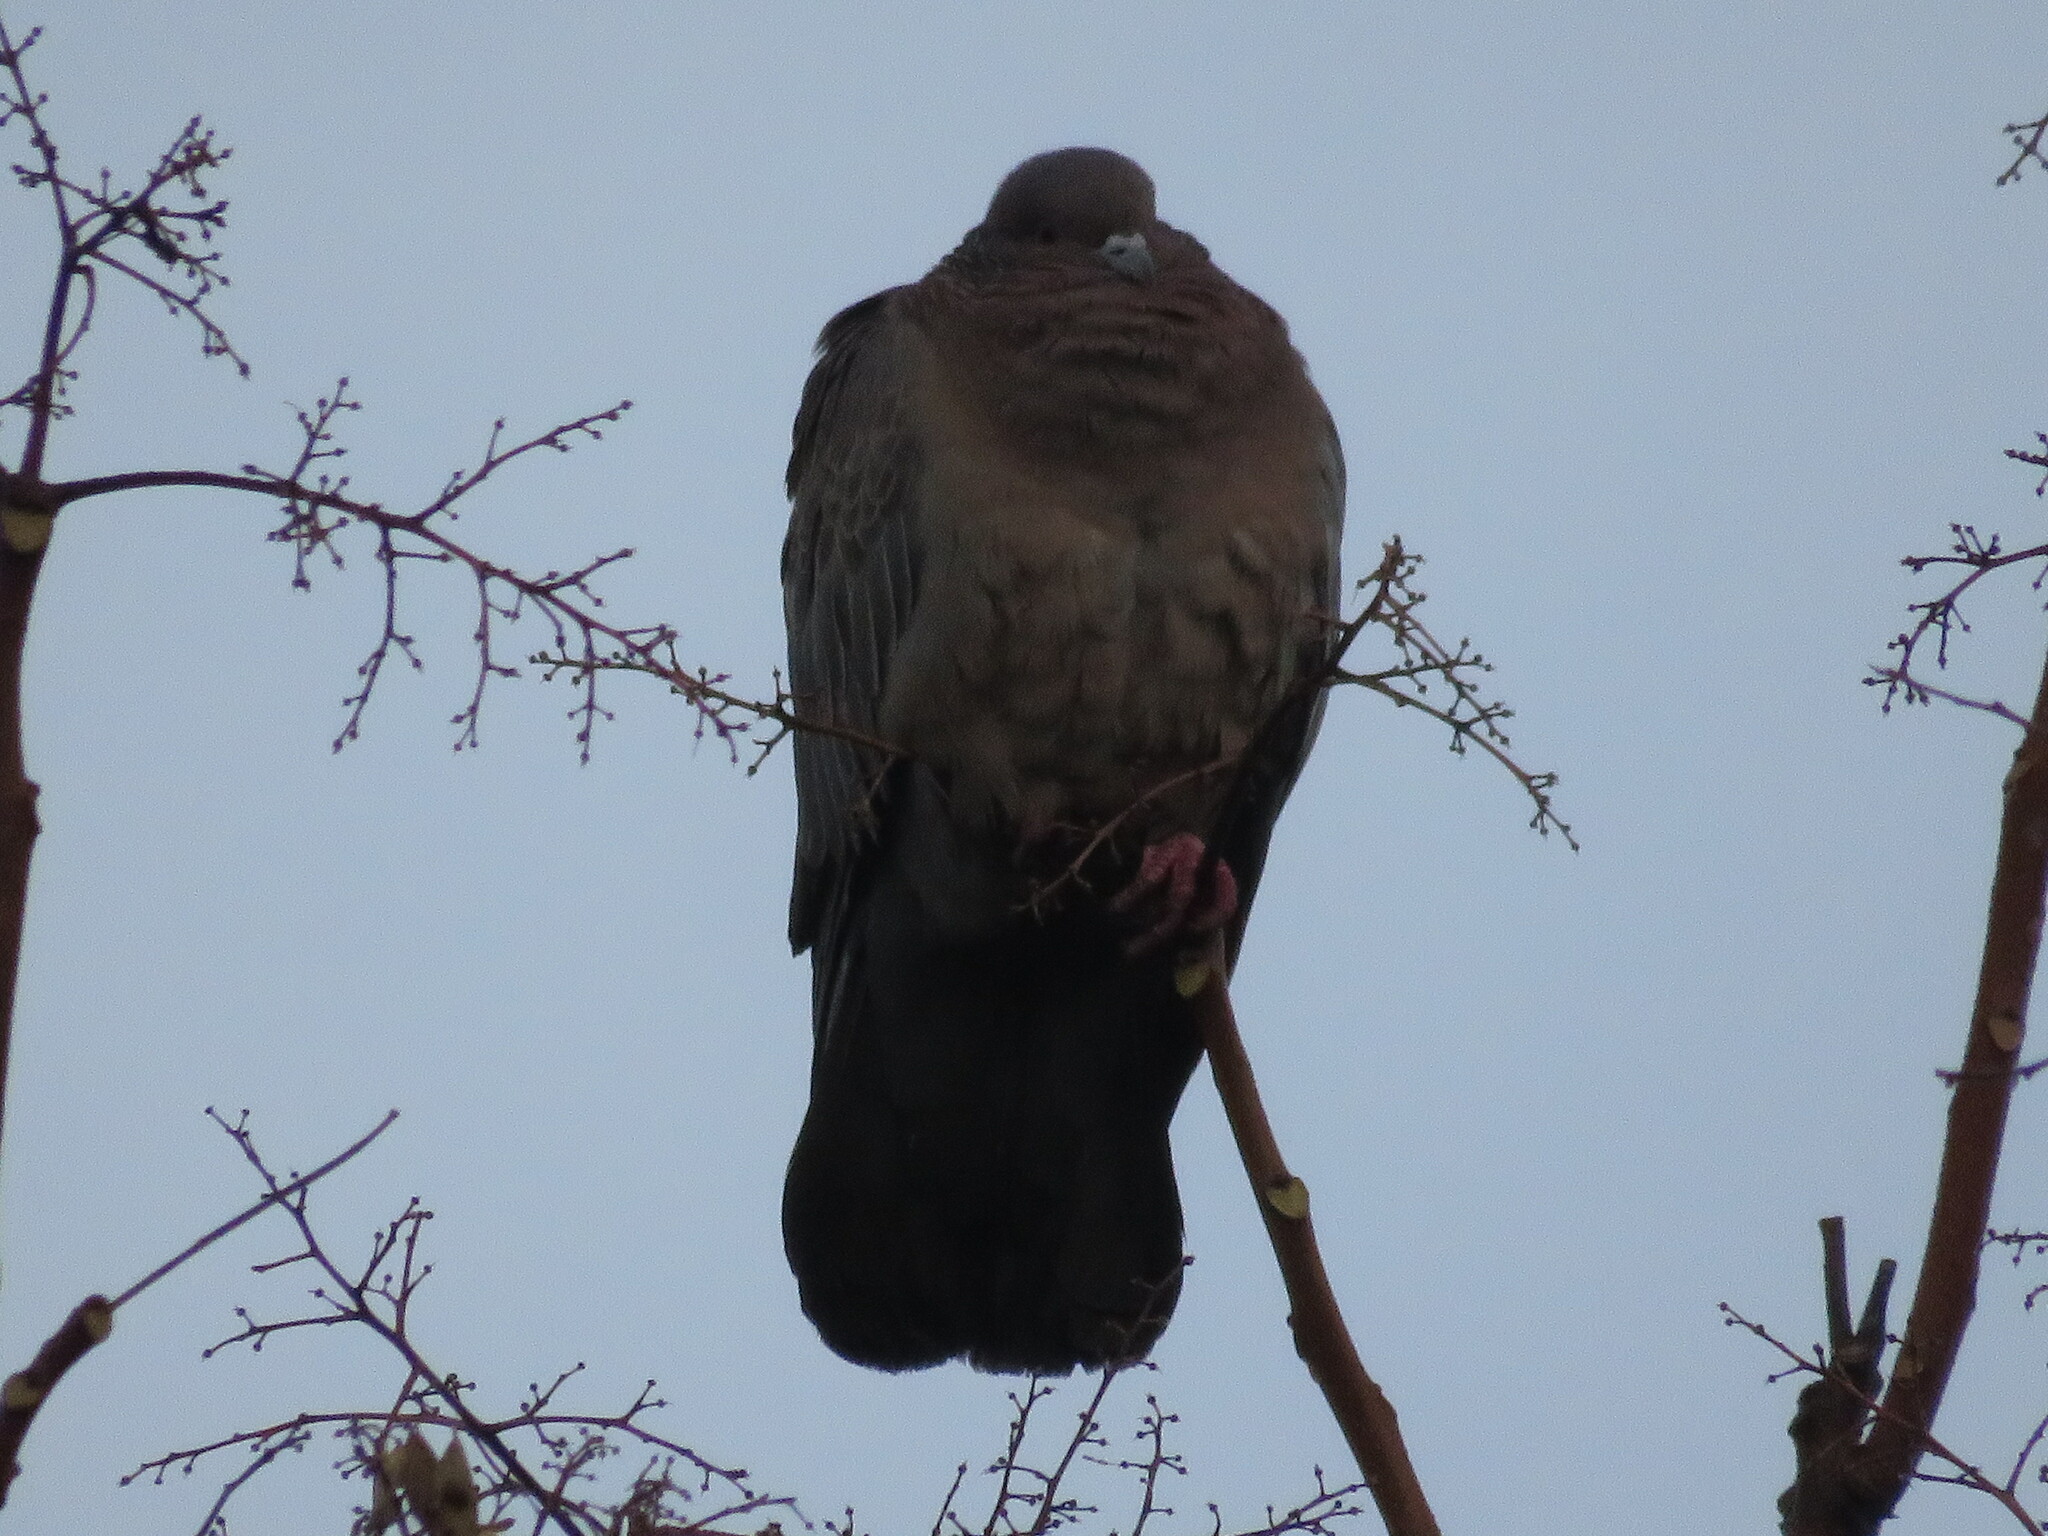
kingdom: Animalia
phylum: Chordata
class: Aves
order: Columbiformes
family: Columbidae
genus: Patagioenas
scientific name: Patagioenas picazuro
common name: Picazuro pigeon
